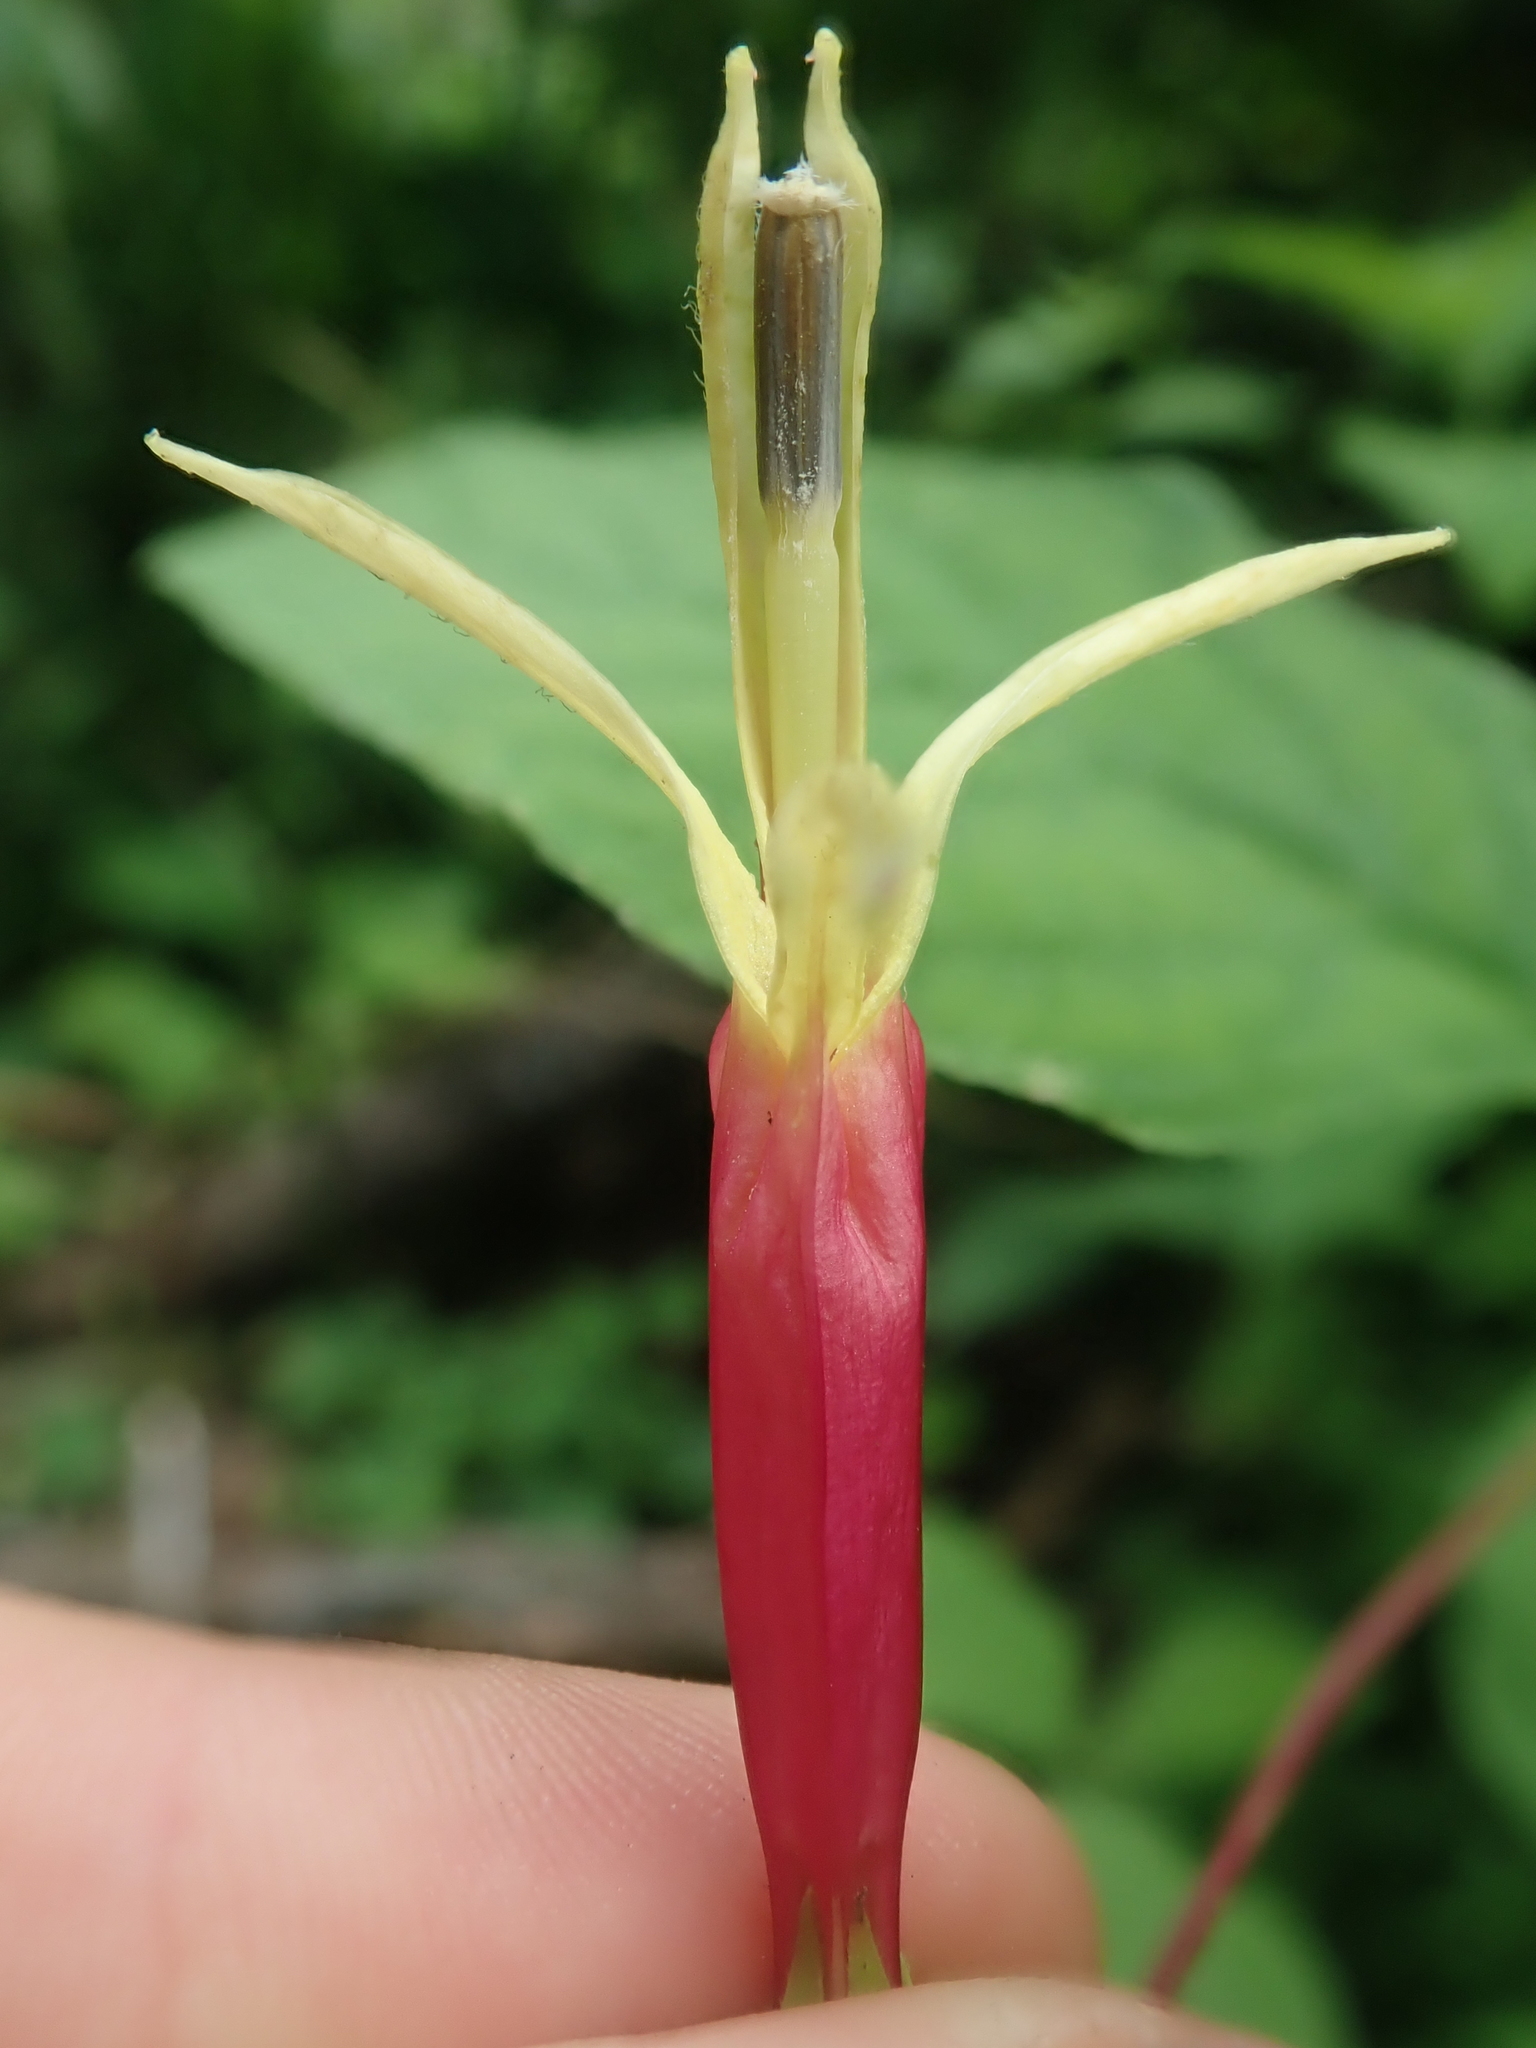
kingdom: Plantae
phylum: Tracheophyta
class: Magnoliopsida
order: Asterales
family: Campanulaceae
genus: Siphocampylus
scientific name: Siphocampylus argentinus
